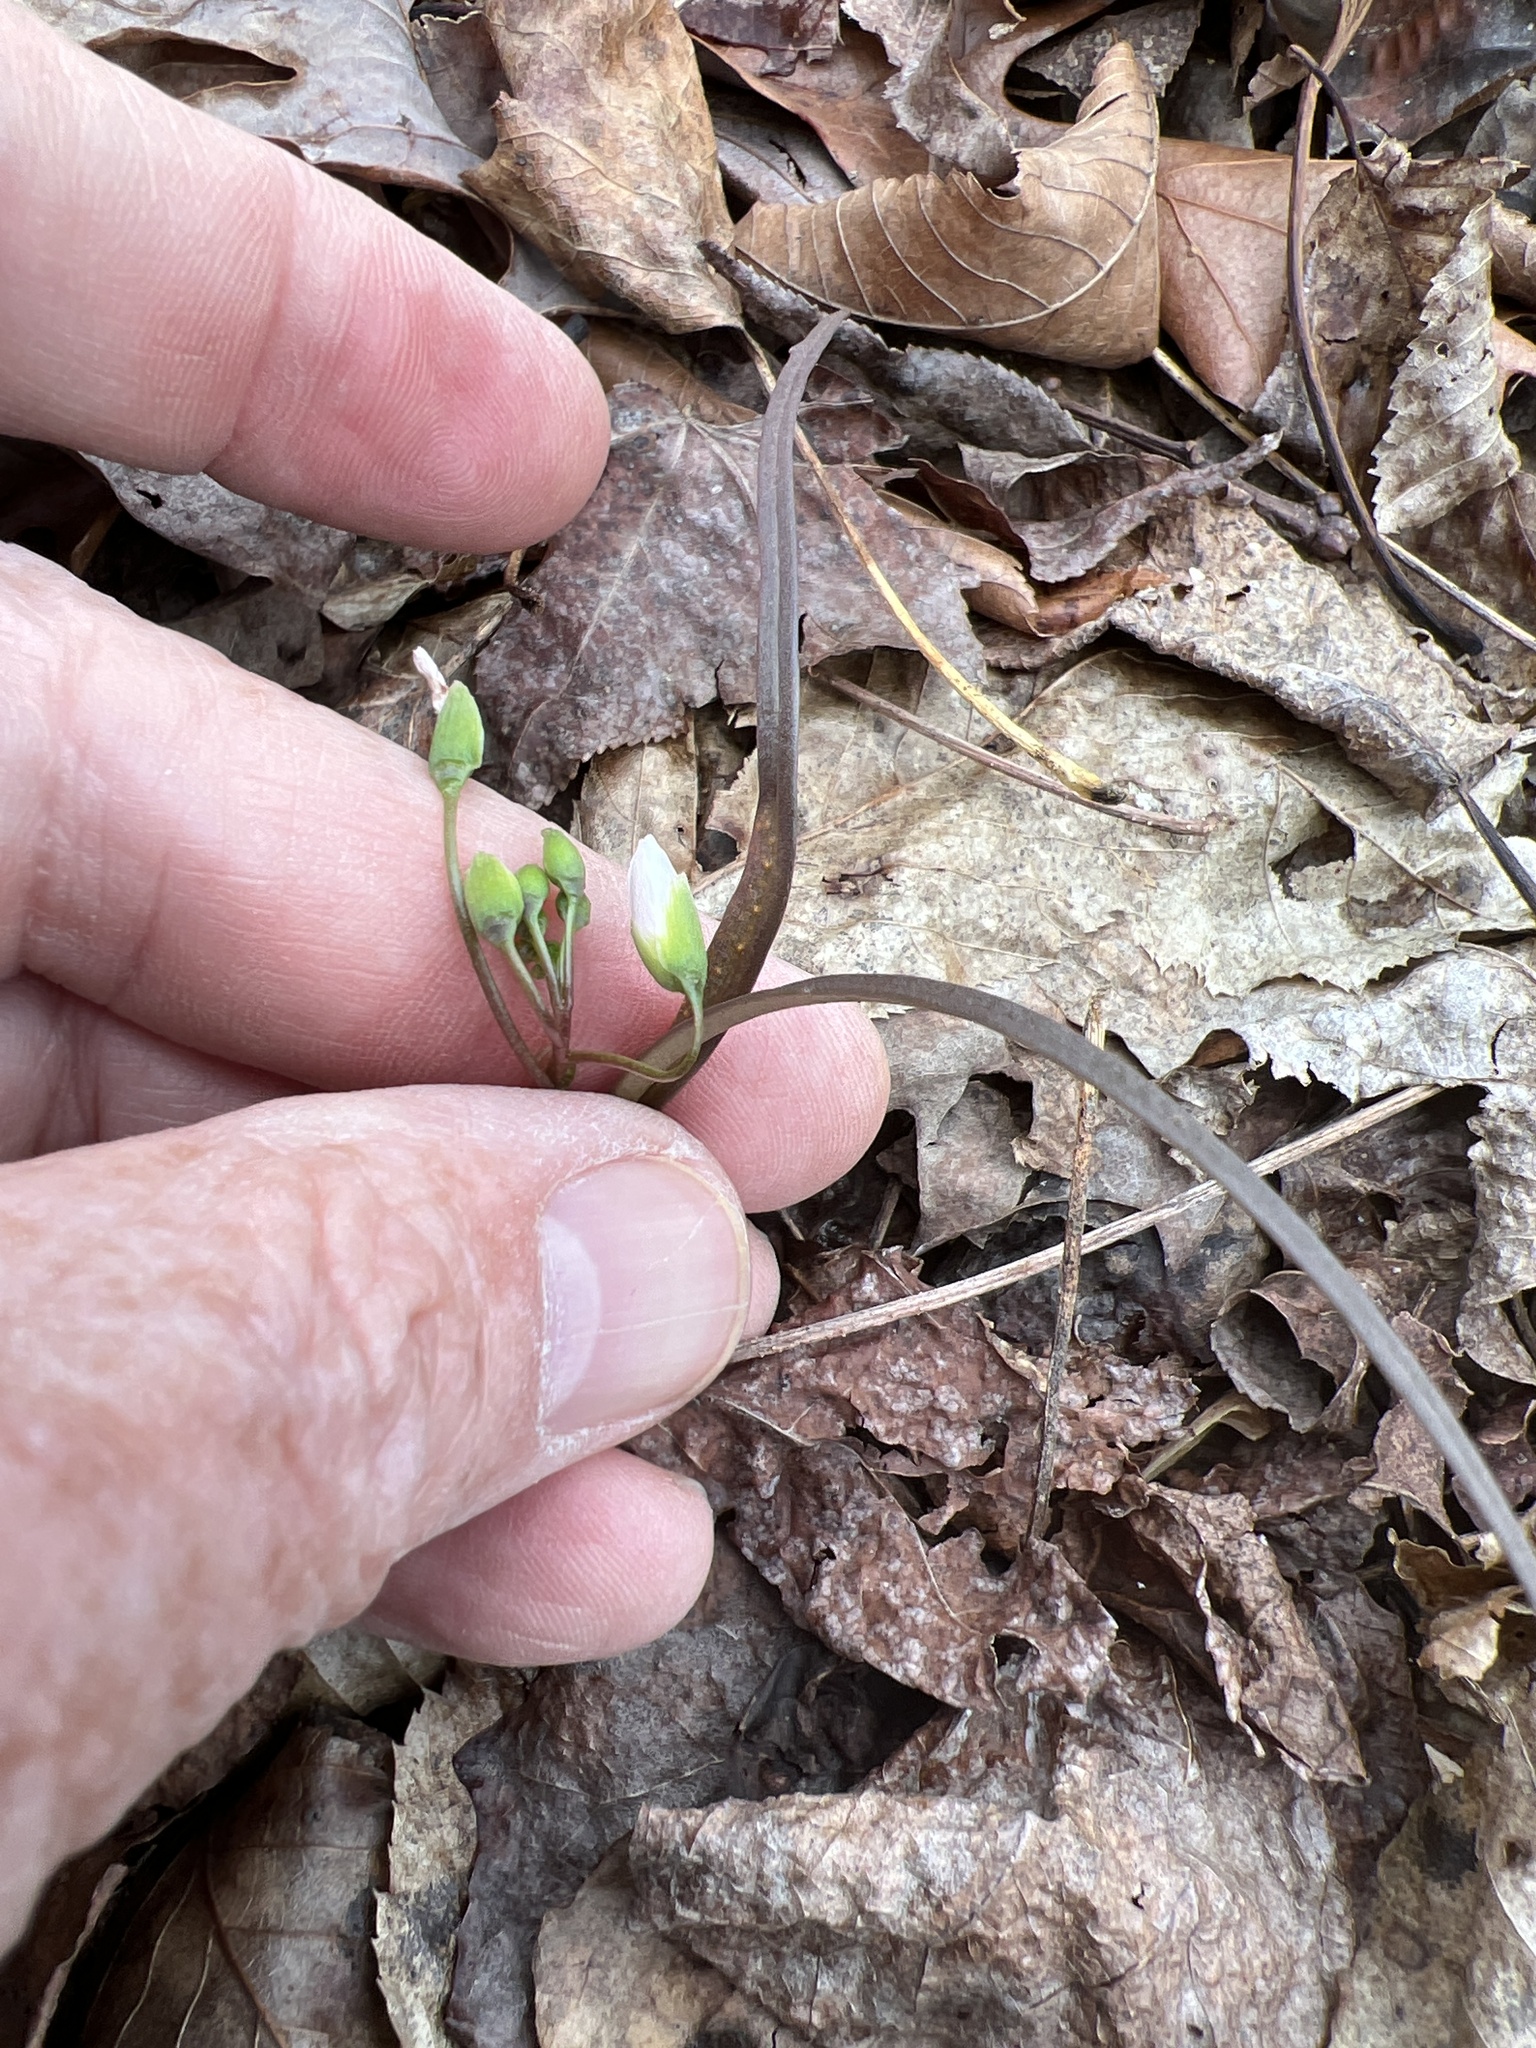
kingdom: Plantae
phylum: Tracheophyta
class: Magnoliopsida
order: Caryophyllales
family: Montiaceae
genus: Claytonia
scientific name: Claytonia virginica
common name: Virginia springbeauty
